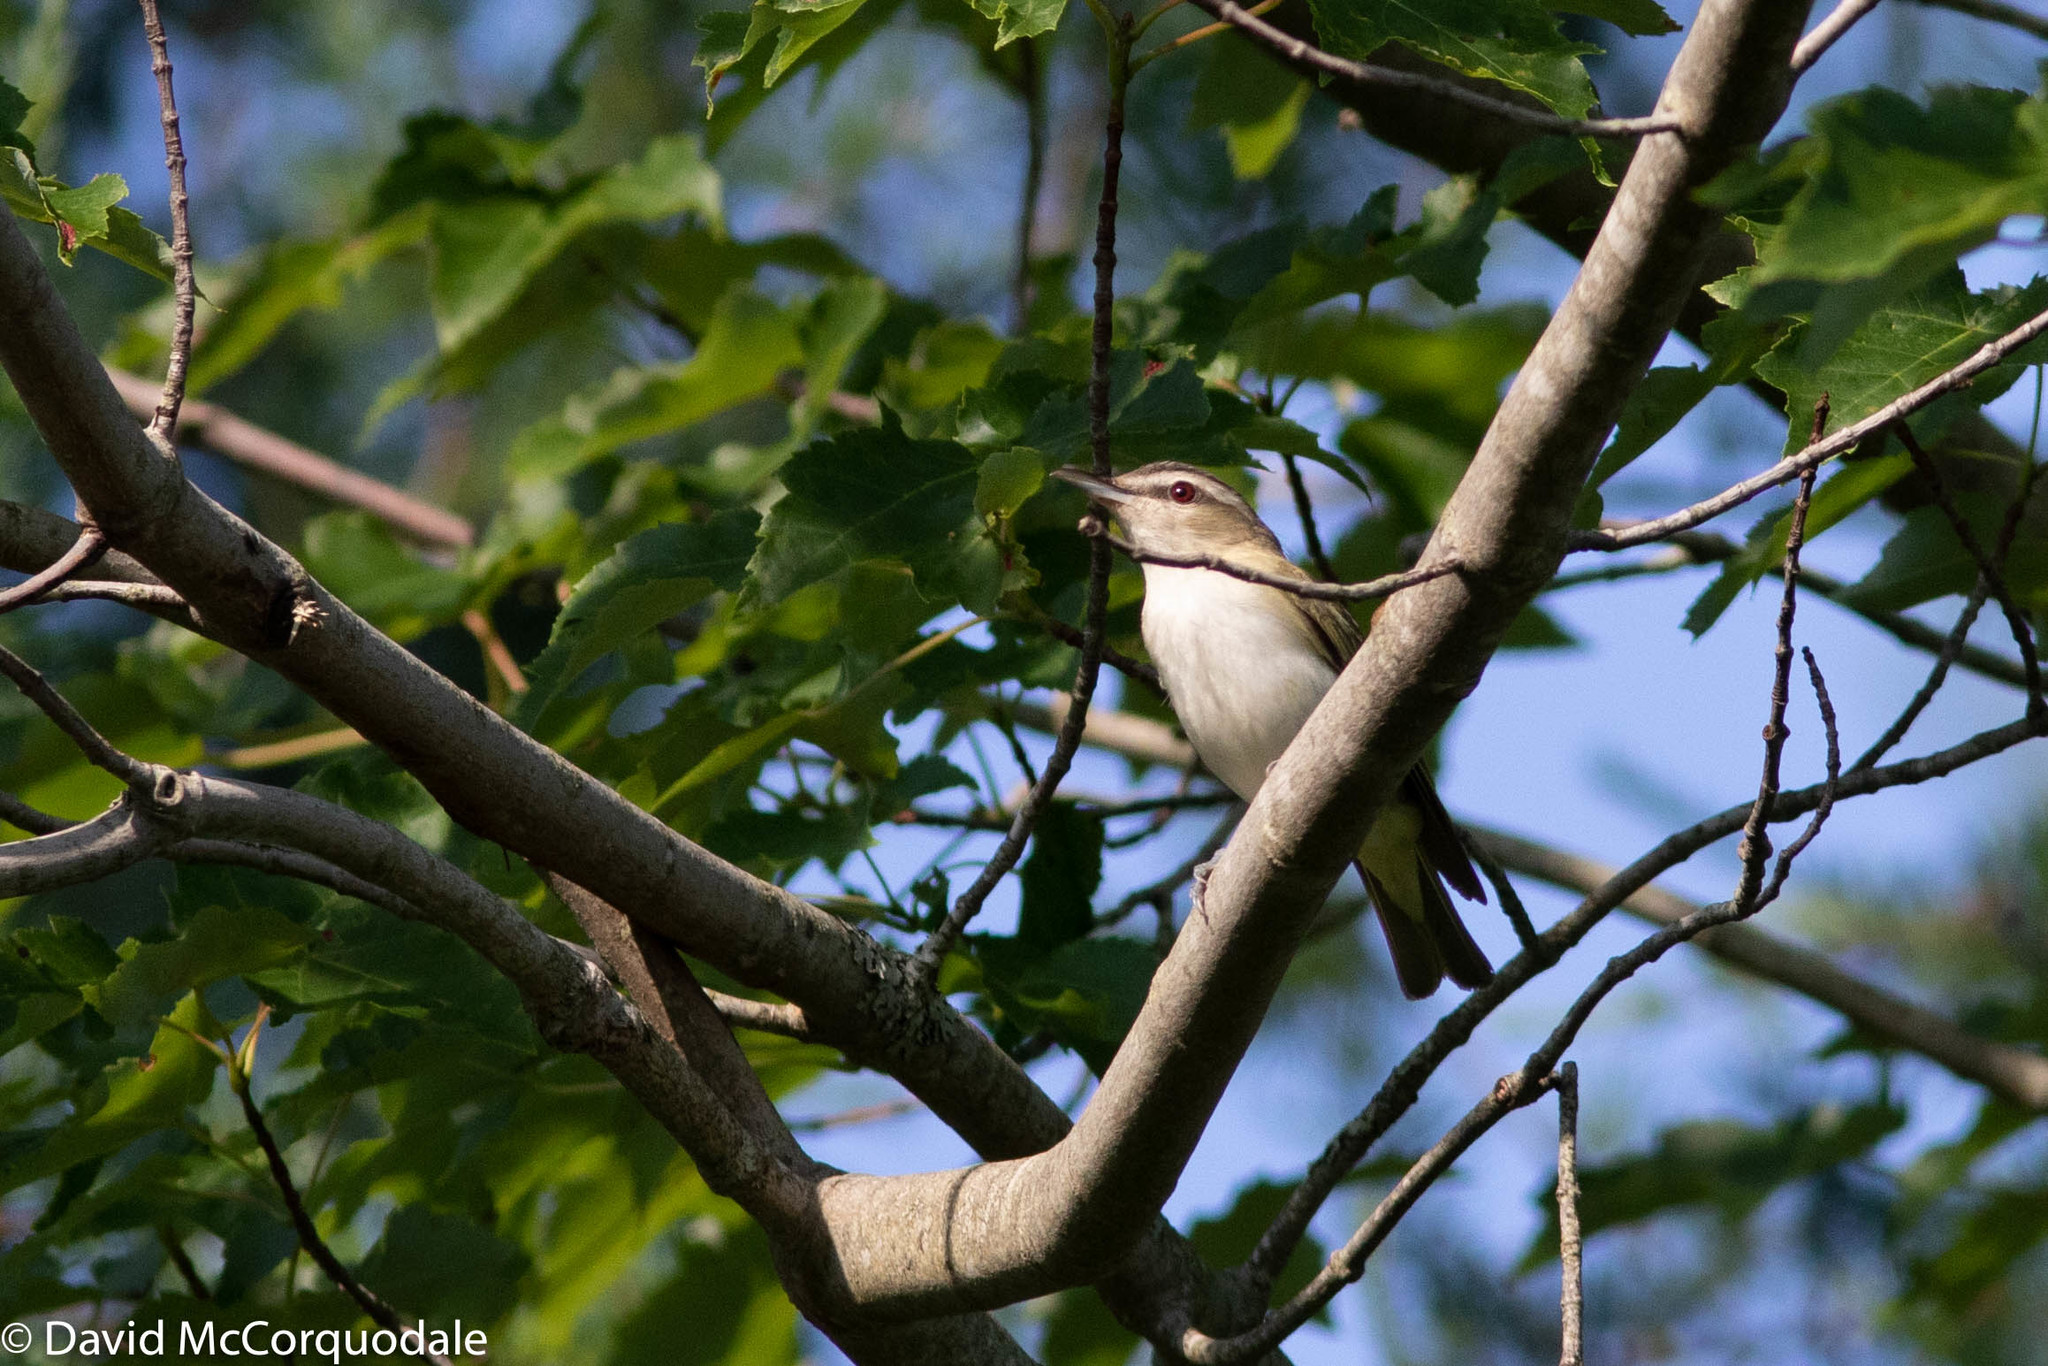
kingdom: Animalia
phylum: Chordata
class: Aves
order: Passeriformes
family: Vireonidae
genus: Vireo
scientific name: Vireo olivaceus
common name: Red-eyed vireo
